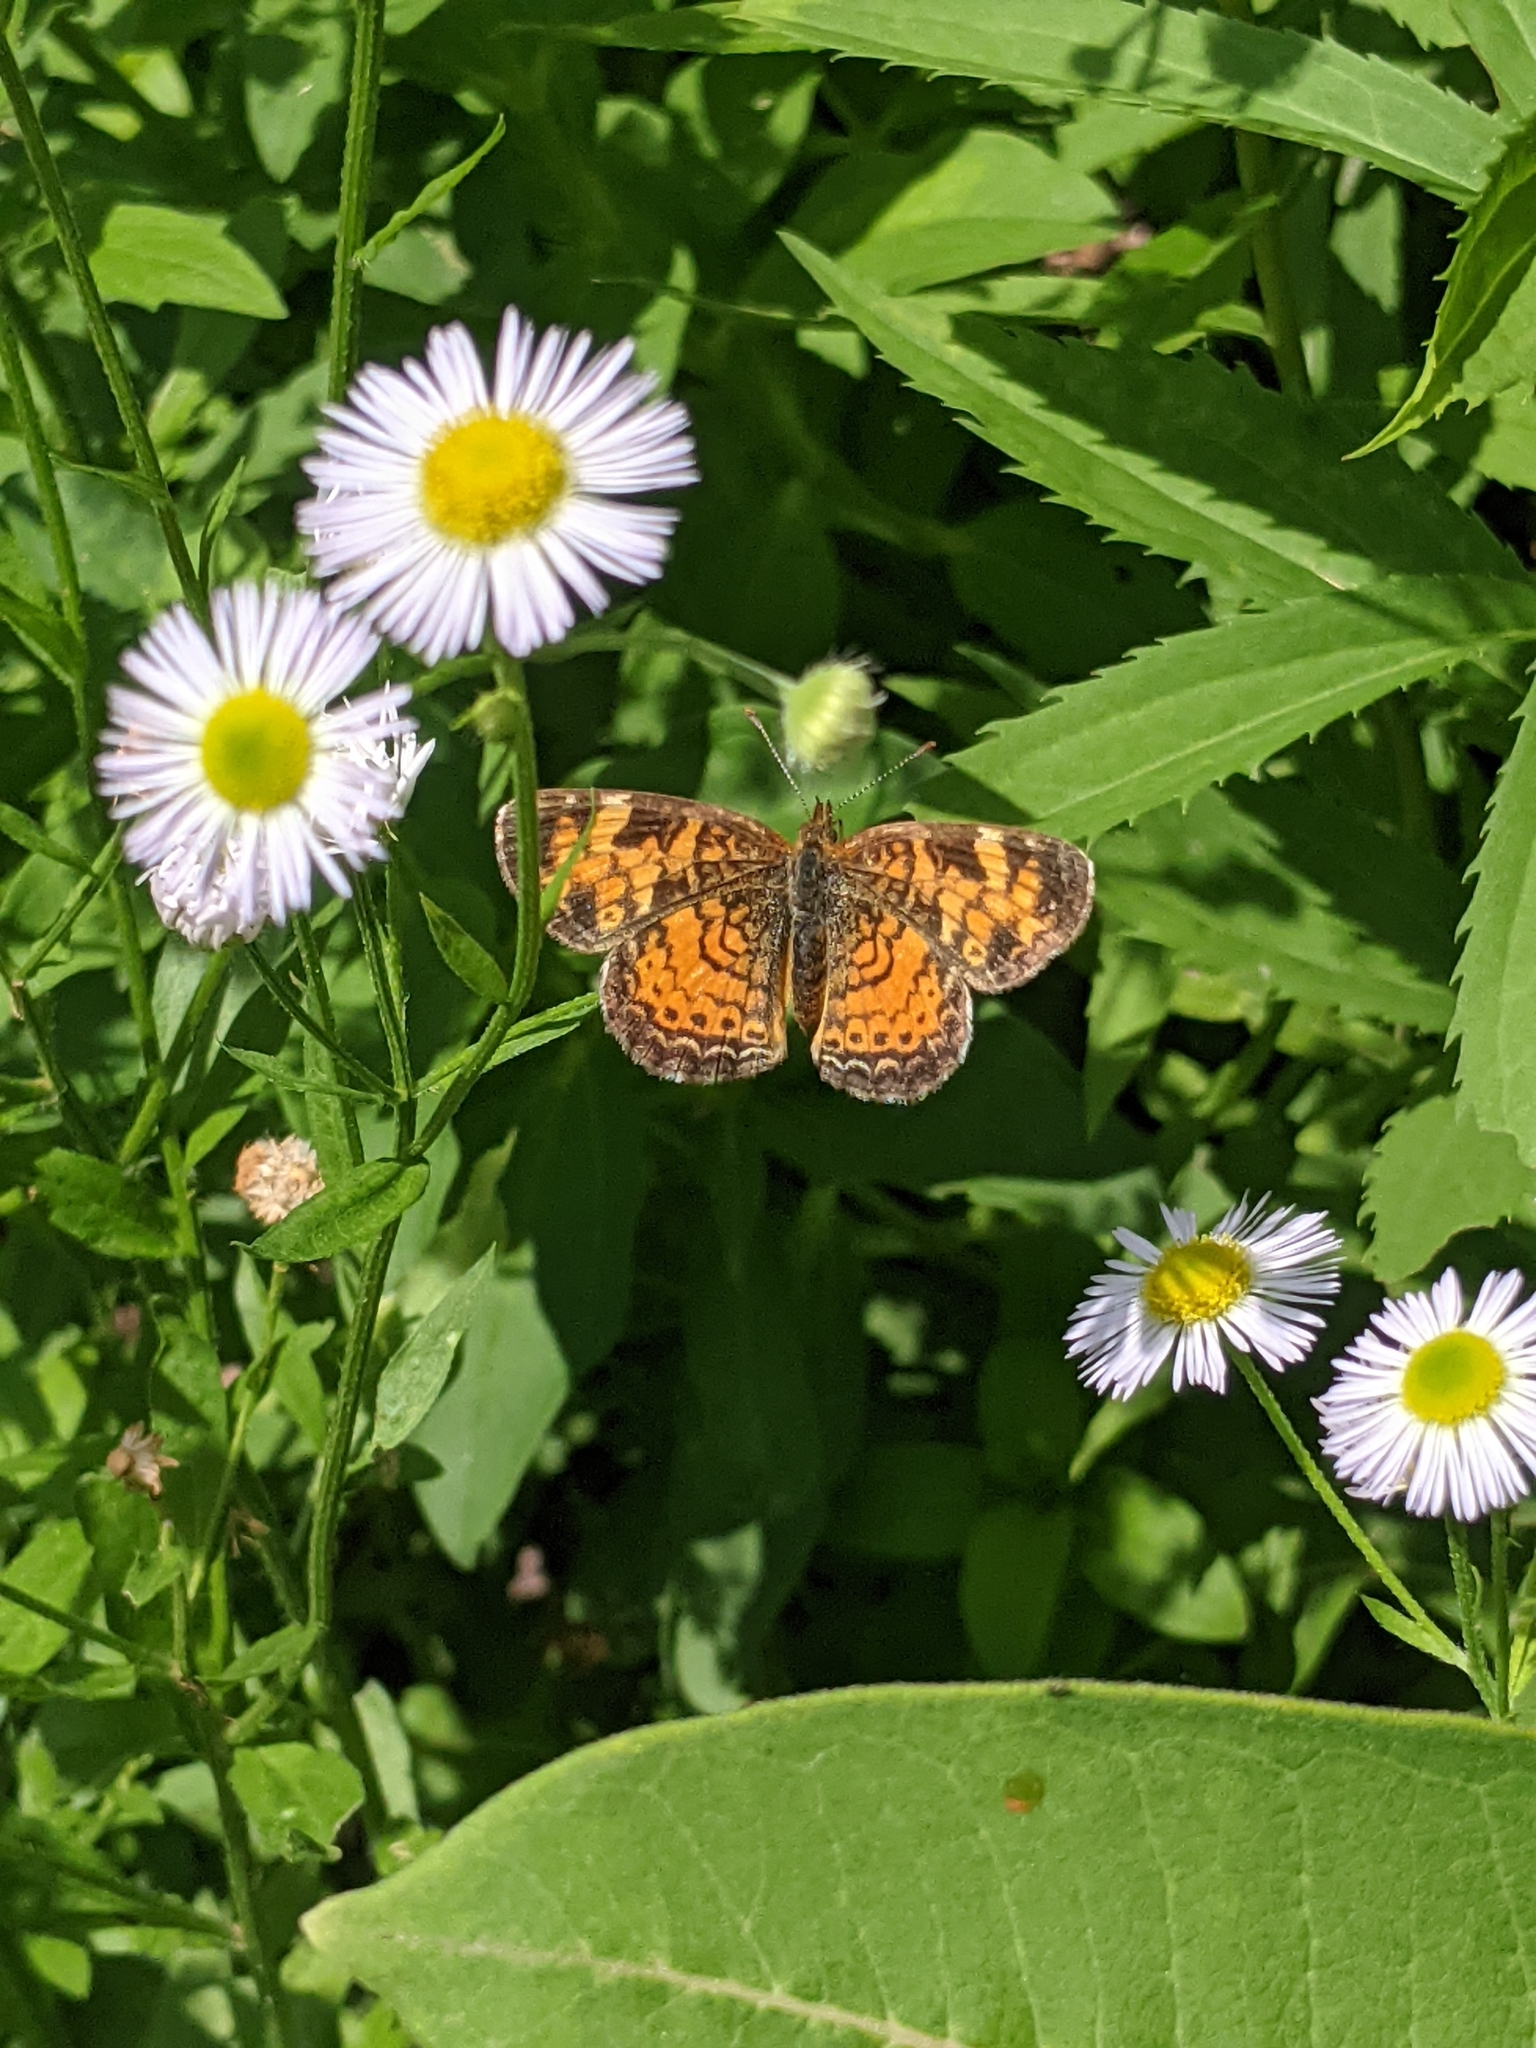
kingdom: Animalia
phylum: Arthropoda
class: Insecta
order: Lepidoptera
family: Nymphalidae
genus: Phyciodes
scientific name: Phyciodes tharos
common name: Pearl crescent
